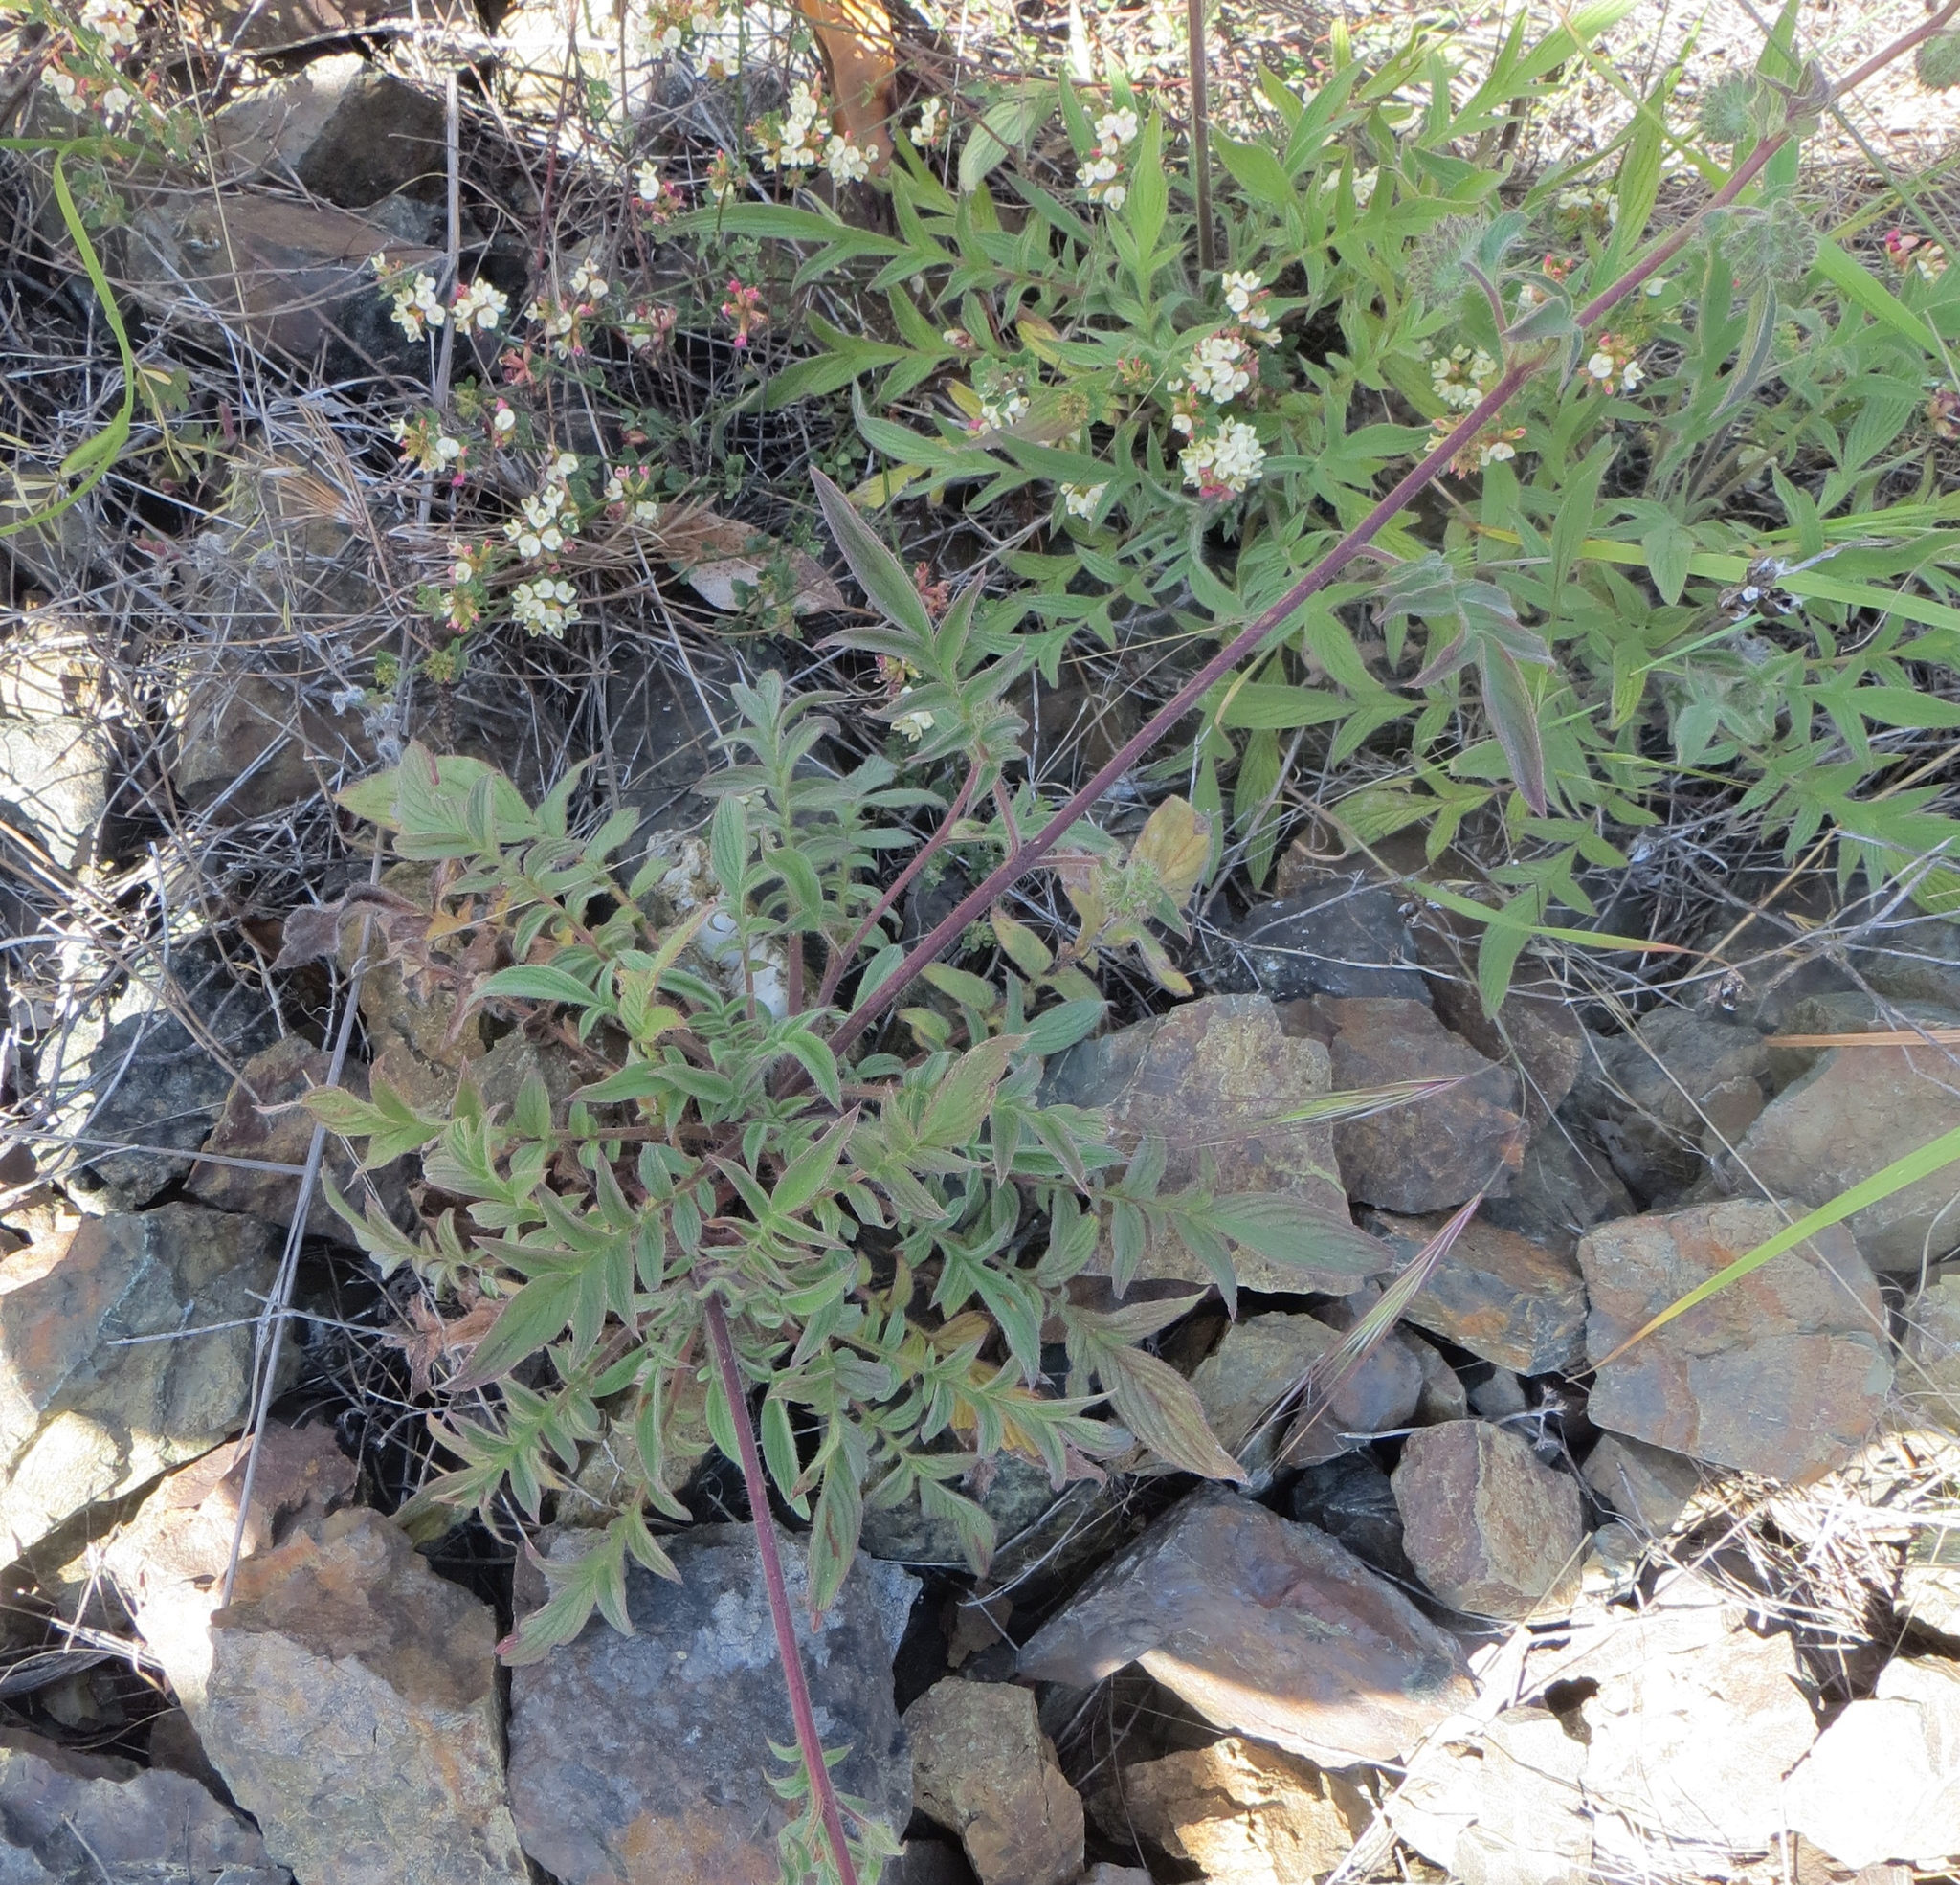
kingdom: Plantae
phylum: Tracheophyta
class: Magnoliopsida
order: Boraginales
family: Hydrophyllaceae
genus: Phacelia
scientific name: Phacelia imbricata
